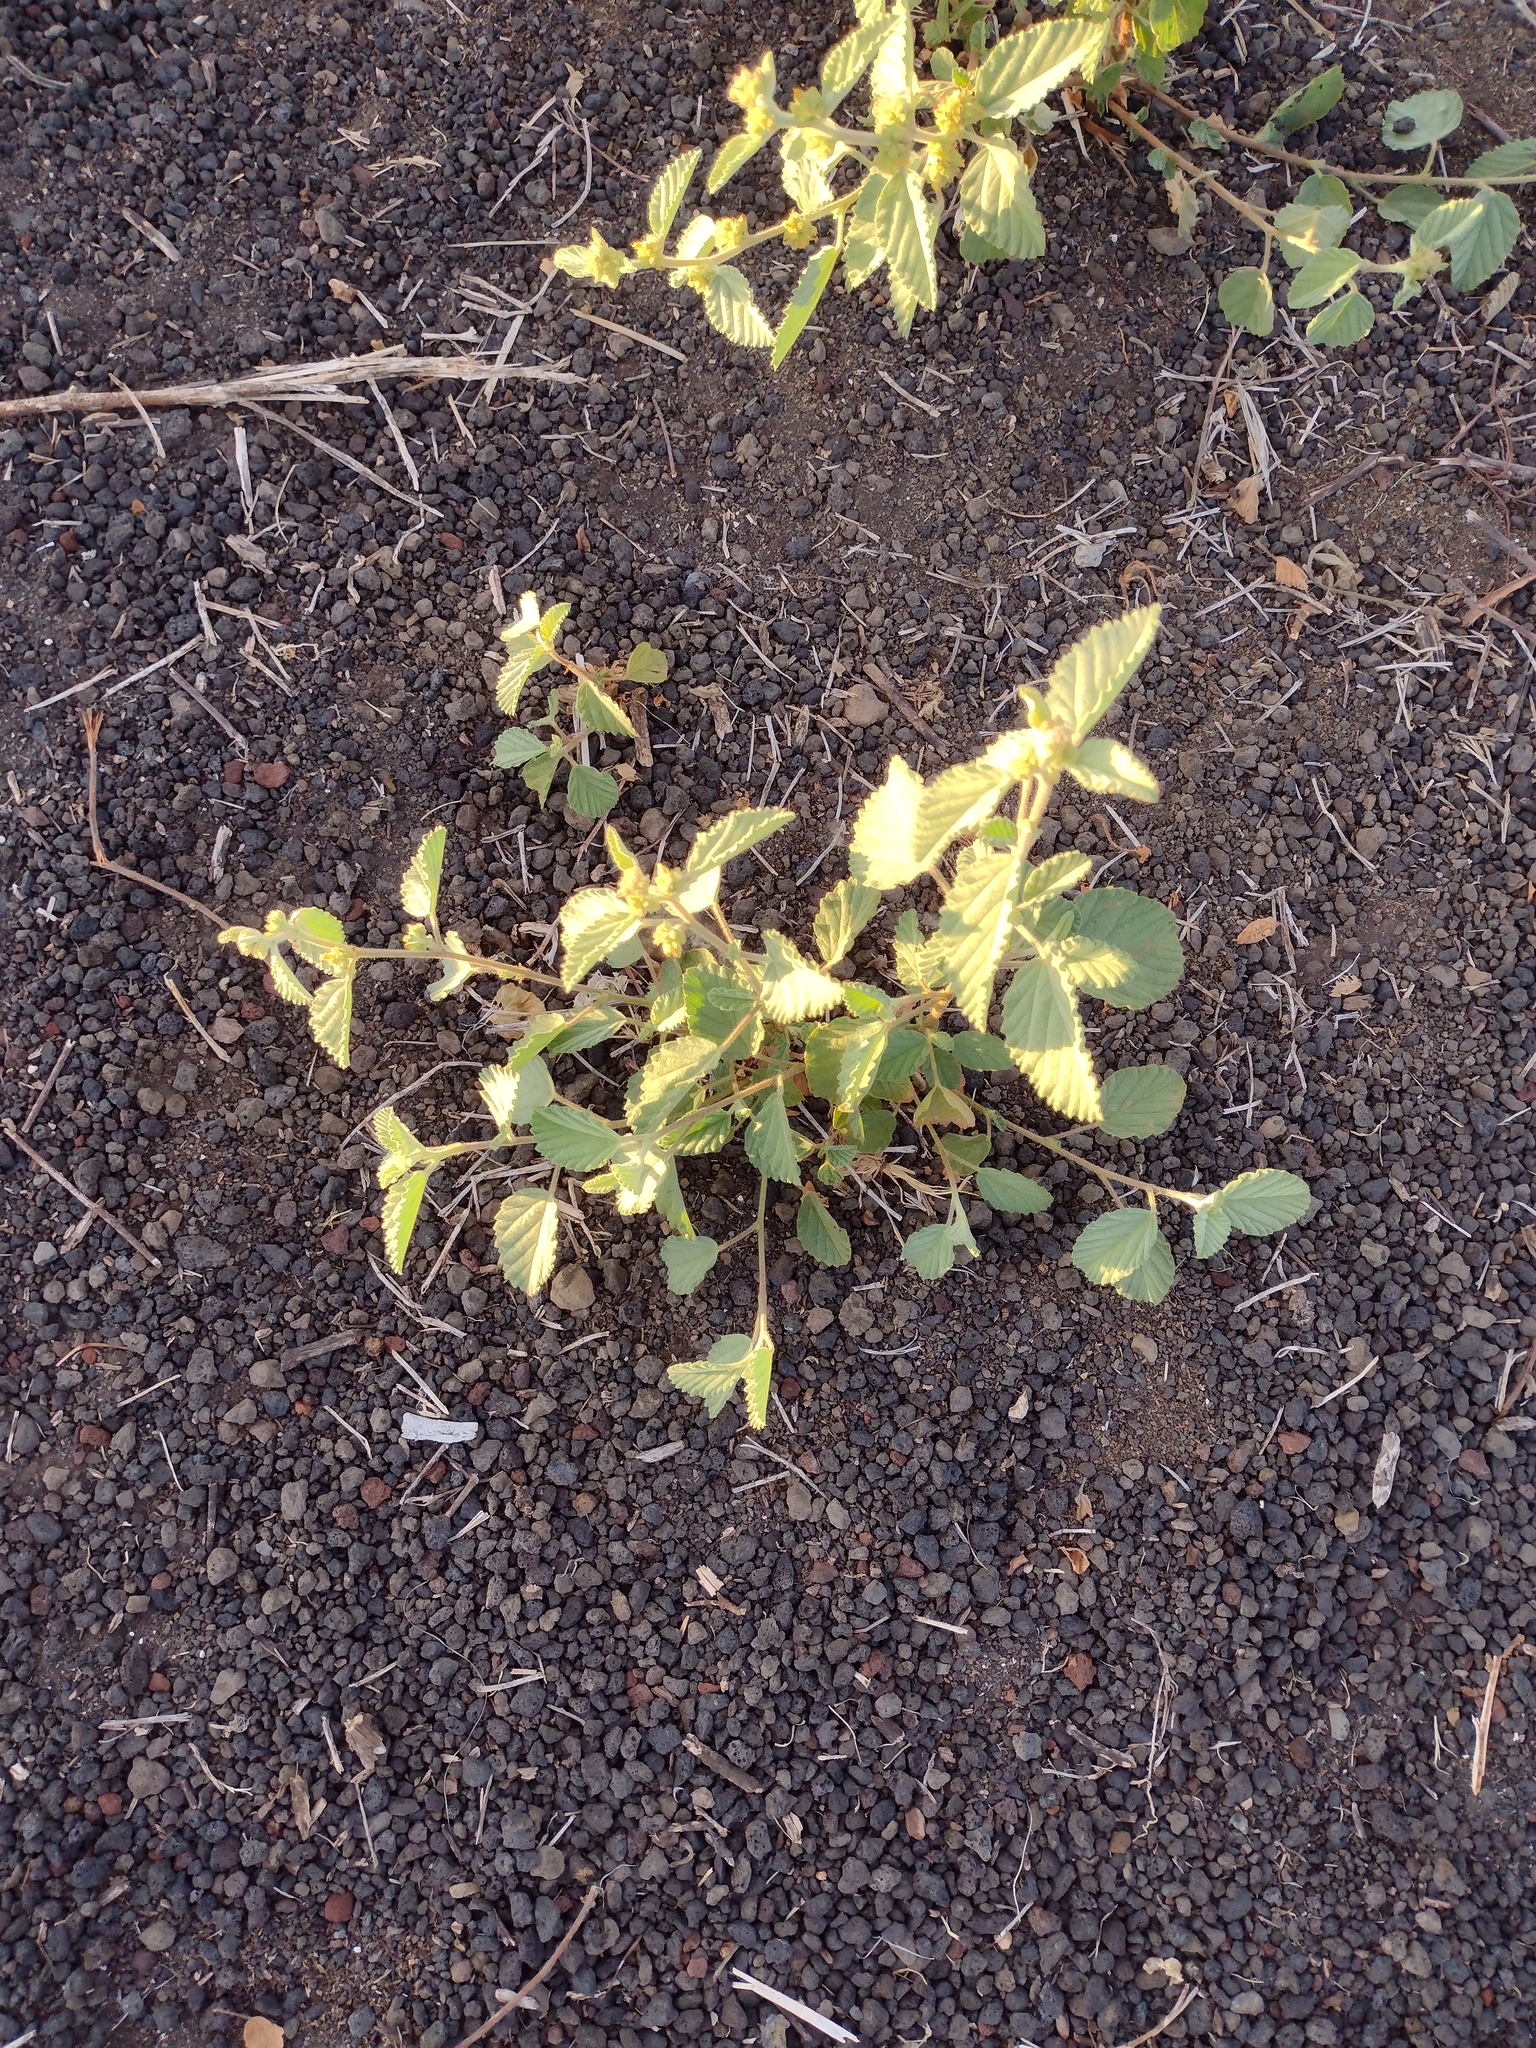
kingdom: Plantae
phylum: Tracheophyta
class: Magnoliopsida
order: Malvales
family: Malvaceae
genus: Waltheria
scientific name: Waltheria indica
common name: Leather-coat
